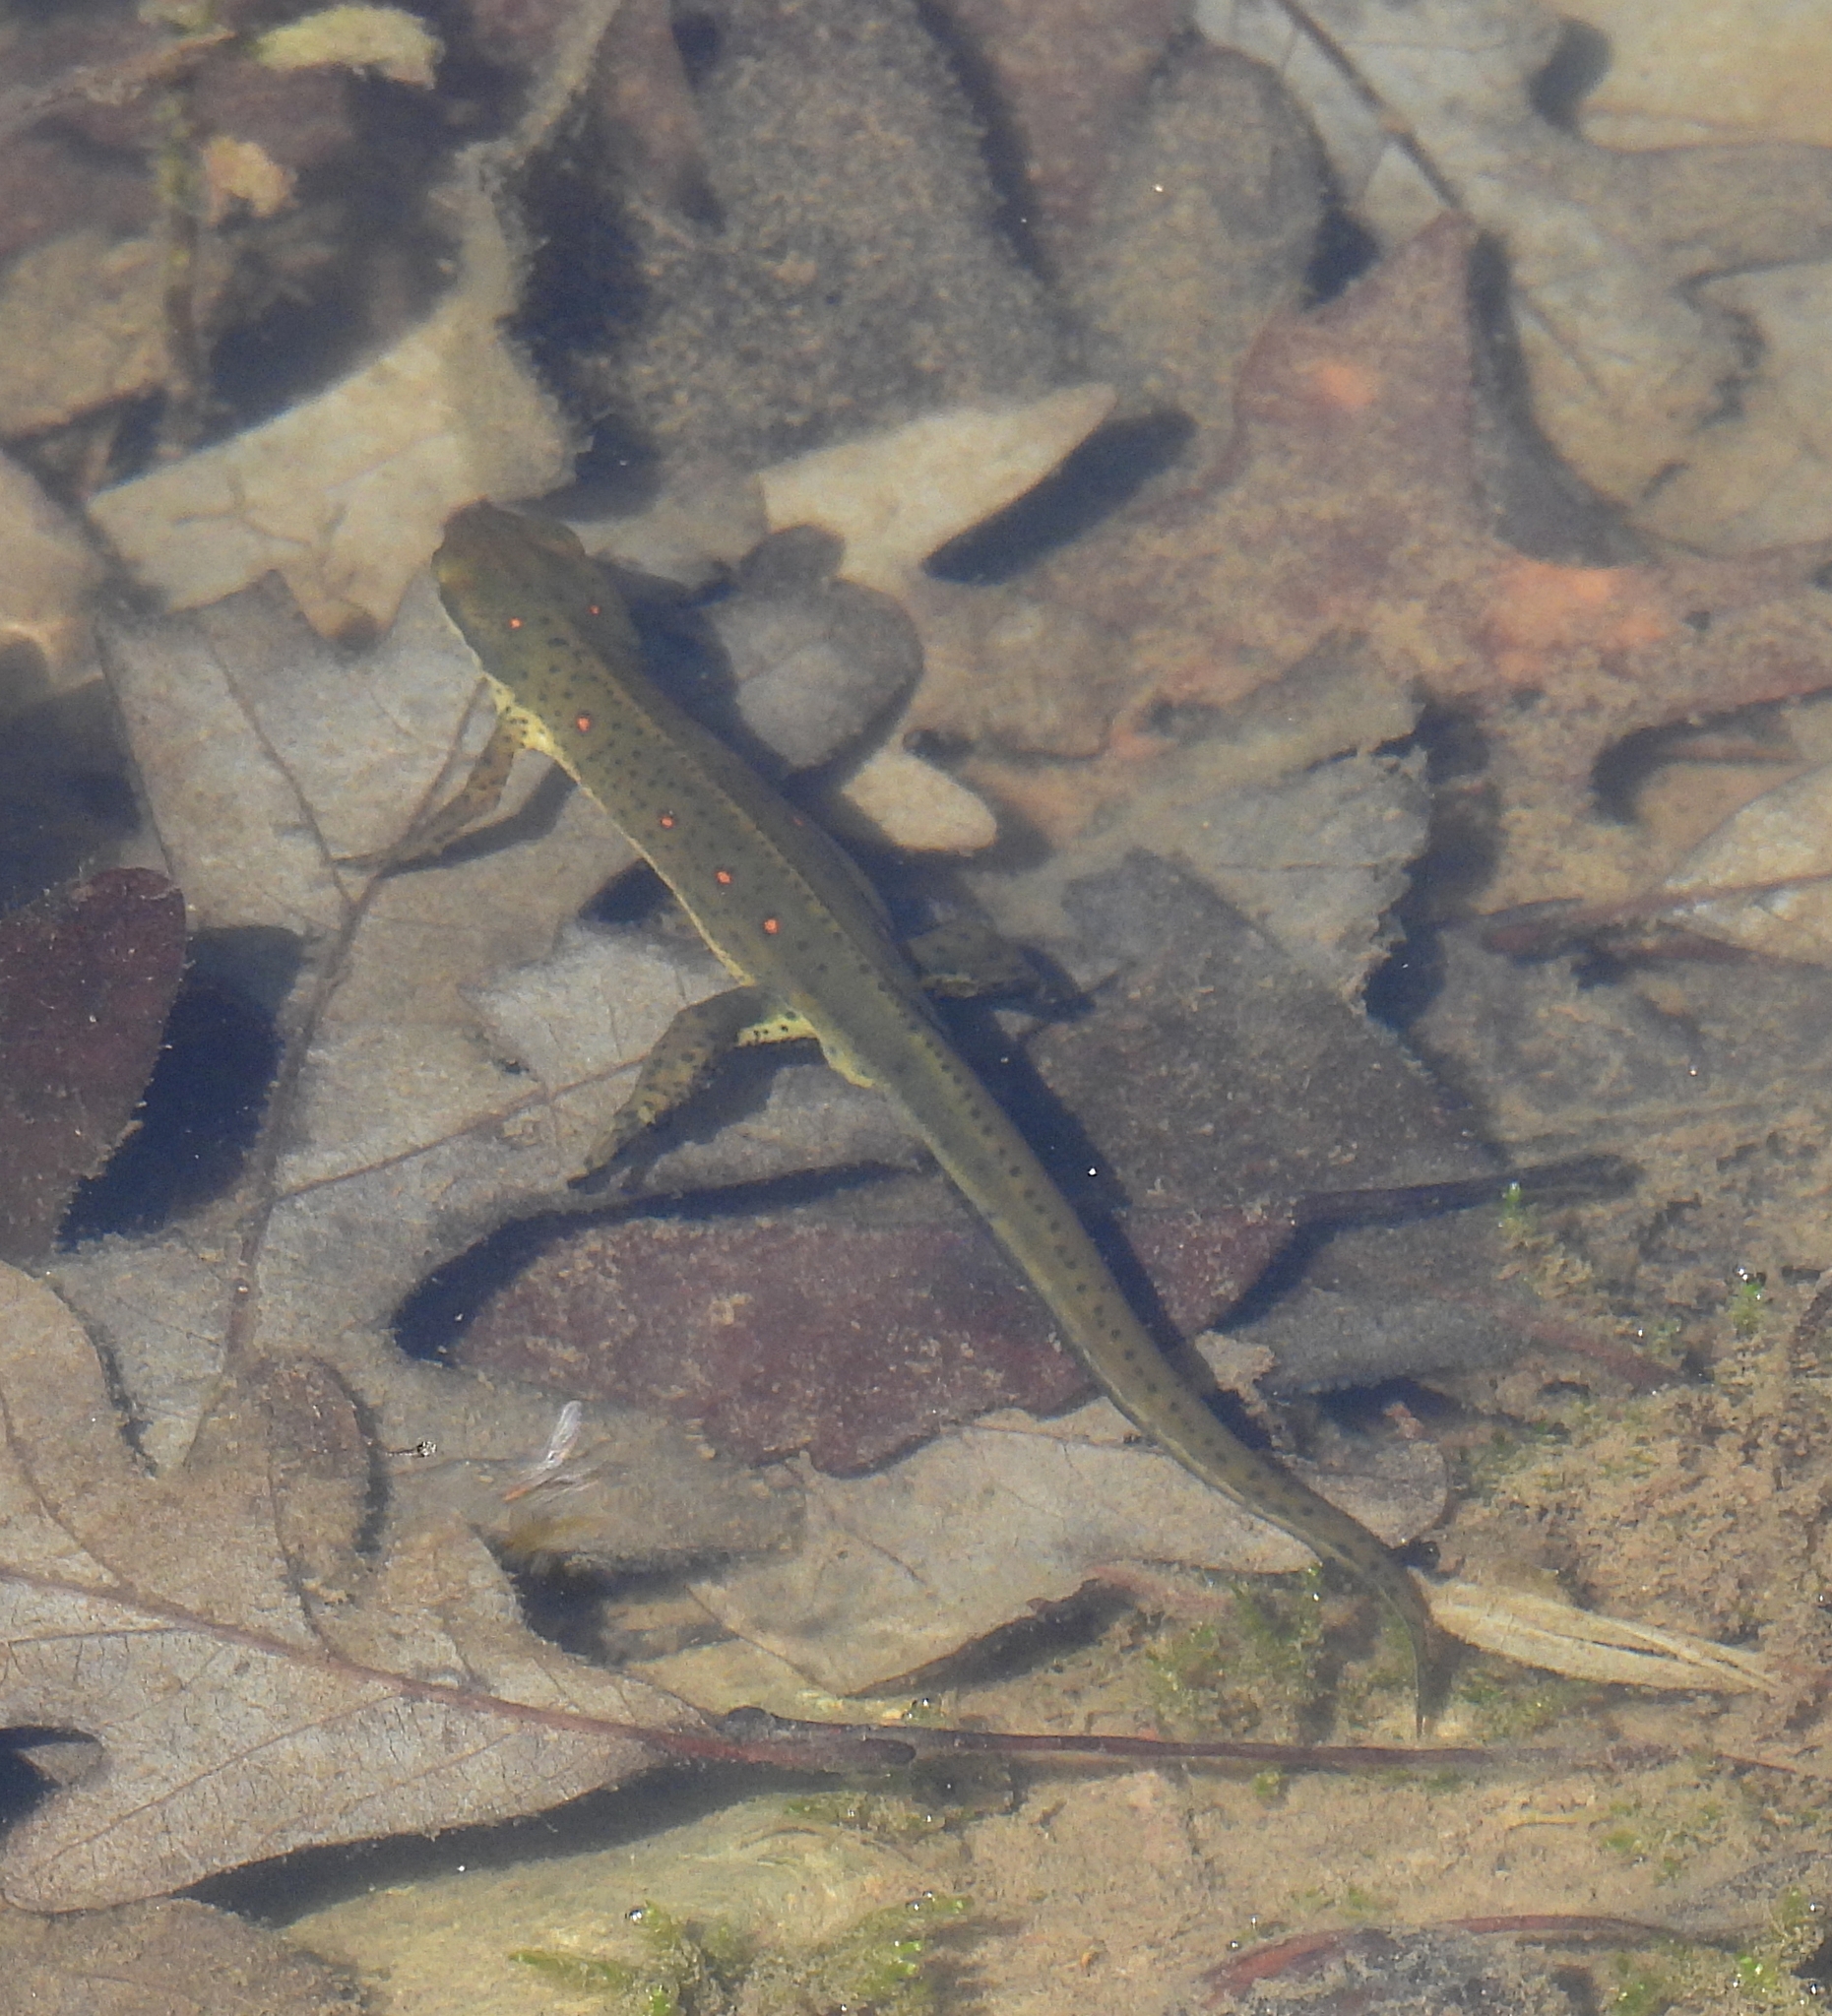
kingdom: Animalia
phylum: Chordata
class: Amphibia
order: Caudata
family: Salamandridae
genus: Notophthalmus
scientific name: Notophthalmus viridescens
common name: Eastern newt
